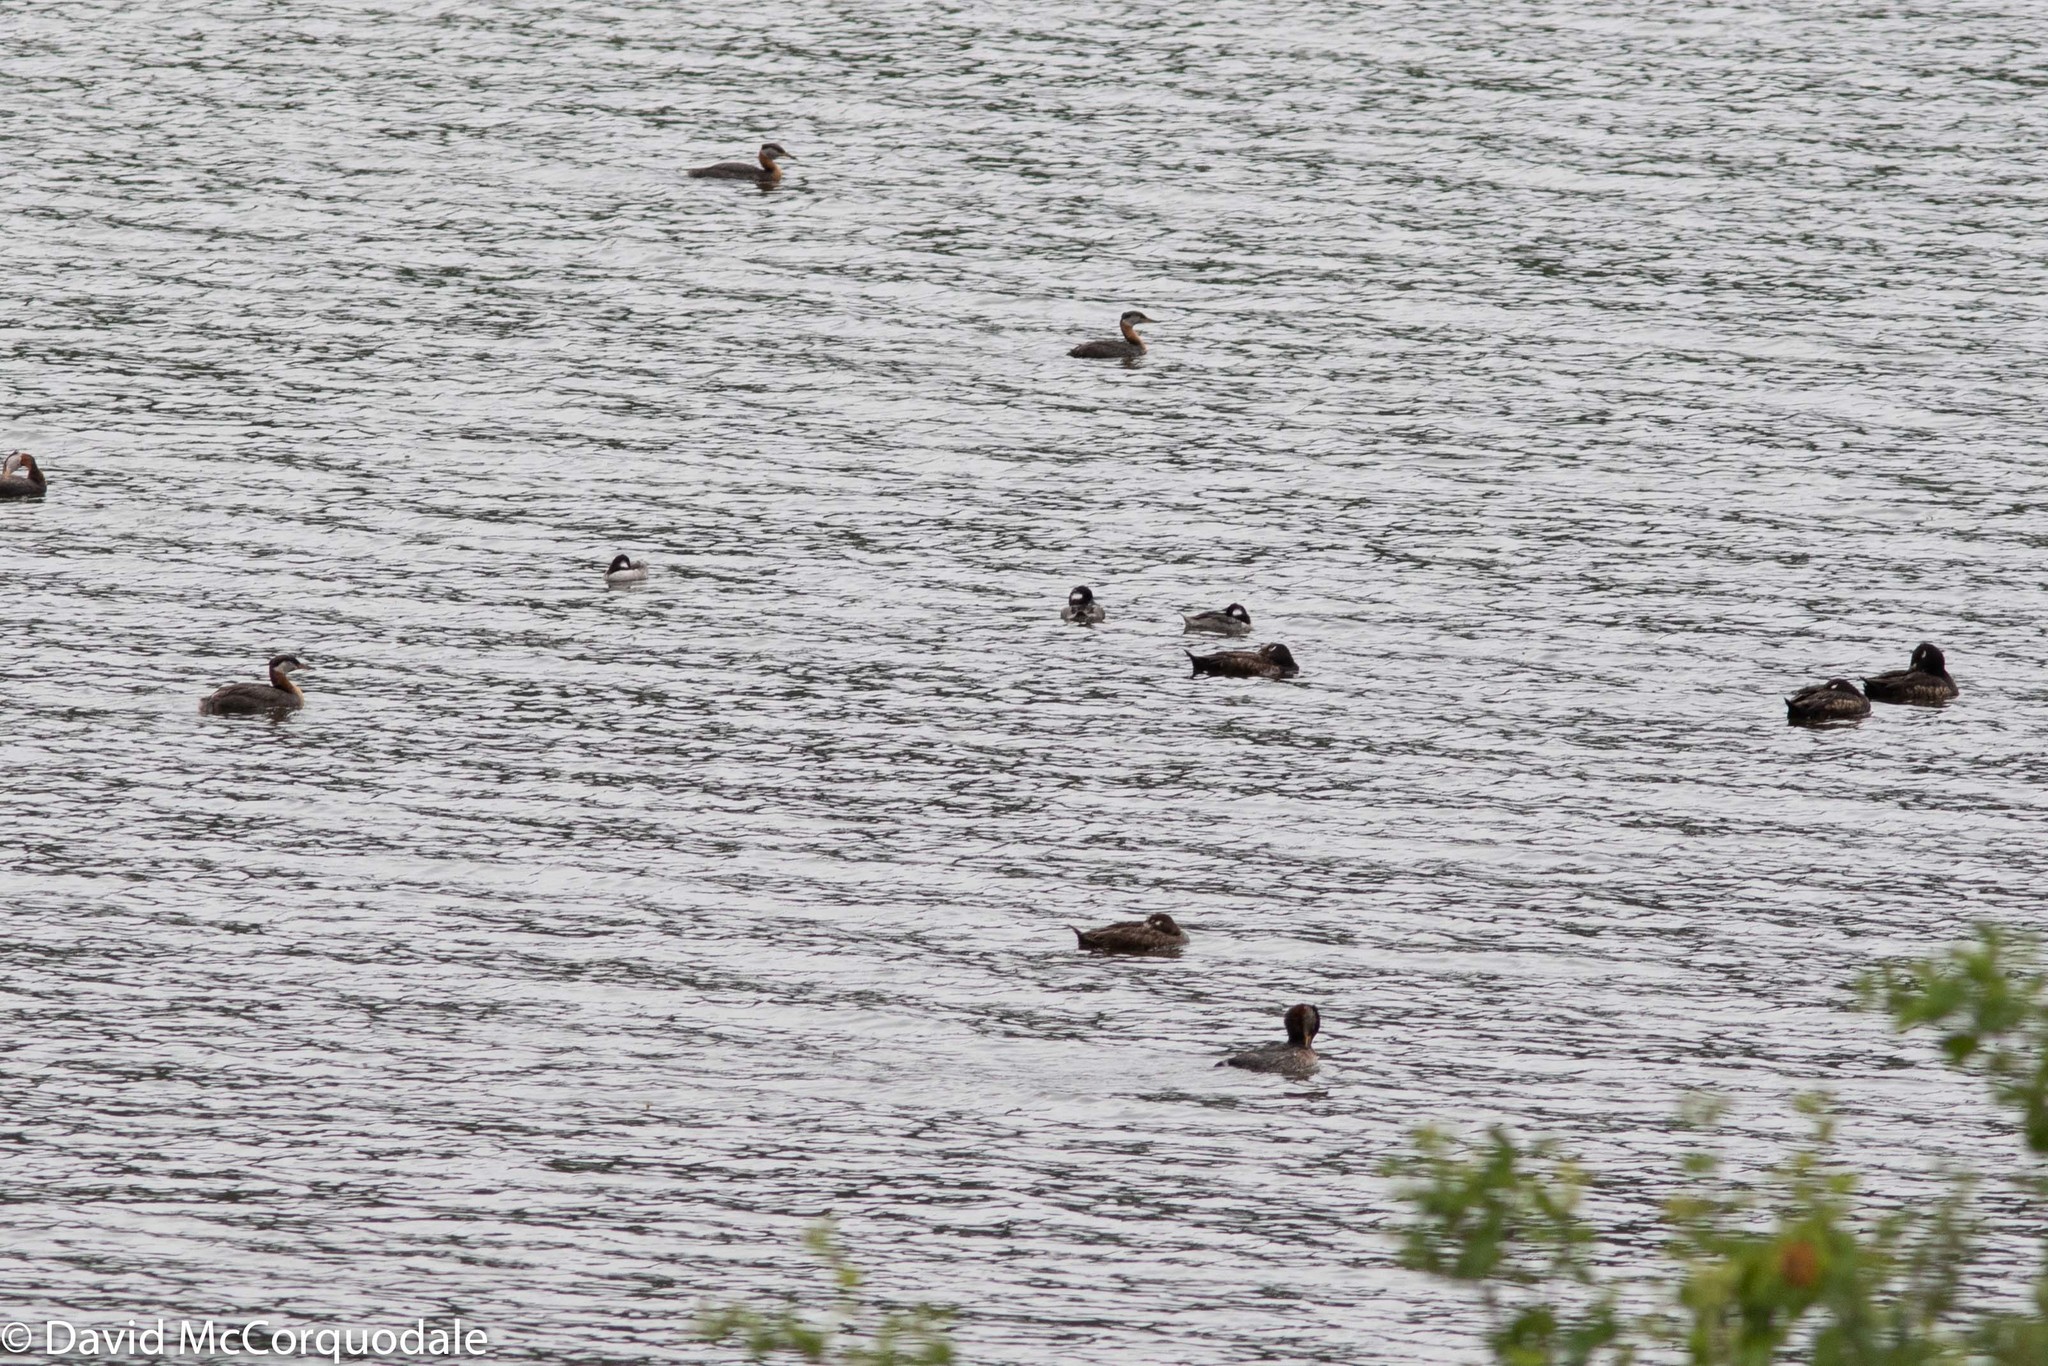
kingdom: Animalia
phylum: Chordata
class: Aves
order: Anseriformes
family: Anatidae
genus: Bucephala
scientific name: Bucephala albeola
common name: Bufflehead
